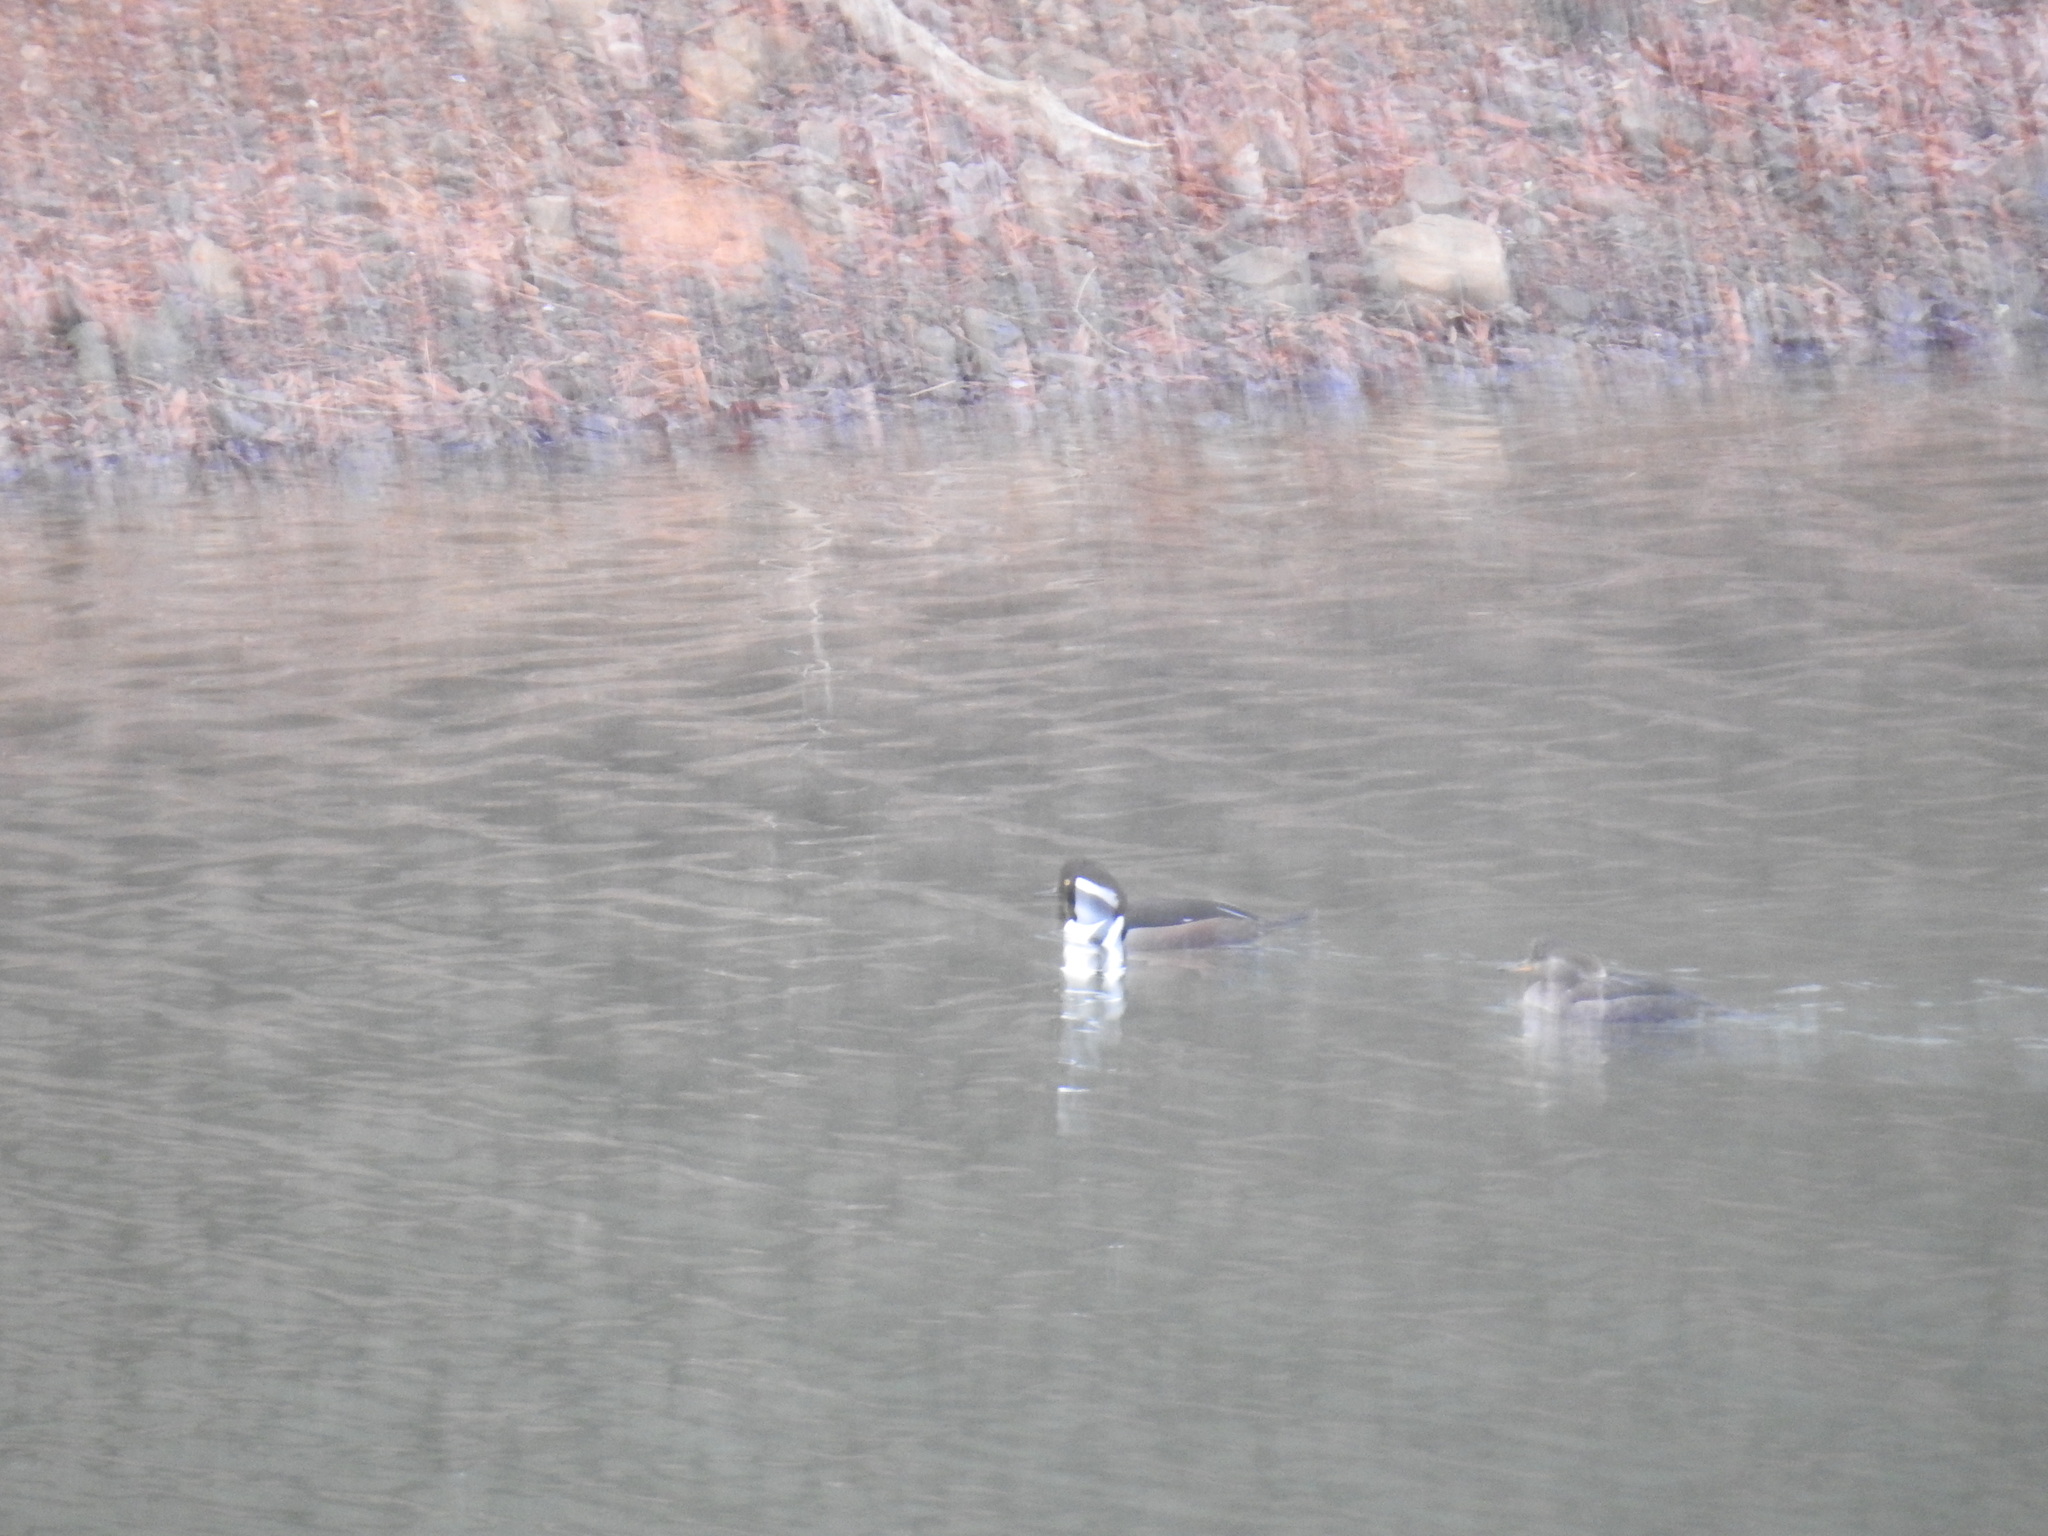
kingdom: Animalia
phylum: Chordata
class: Aves
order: Anseriformes
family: Anatidae
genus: Lophodytes
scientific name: Lophodytes cucullatus
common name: Hooded merganser
